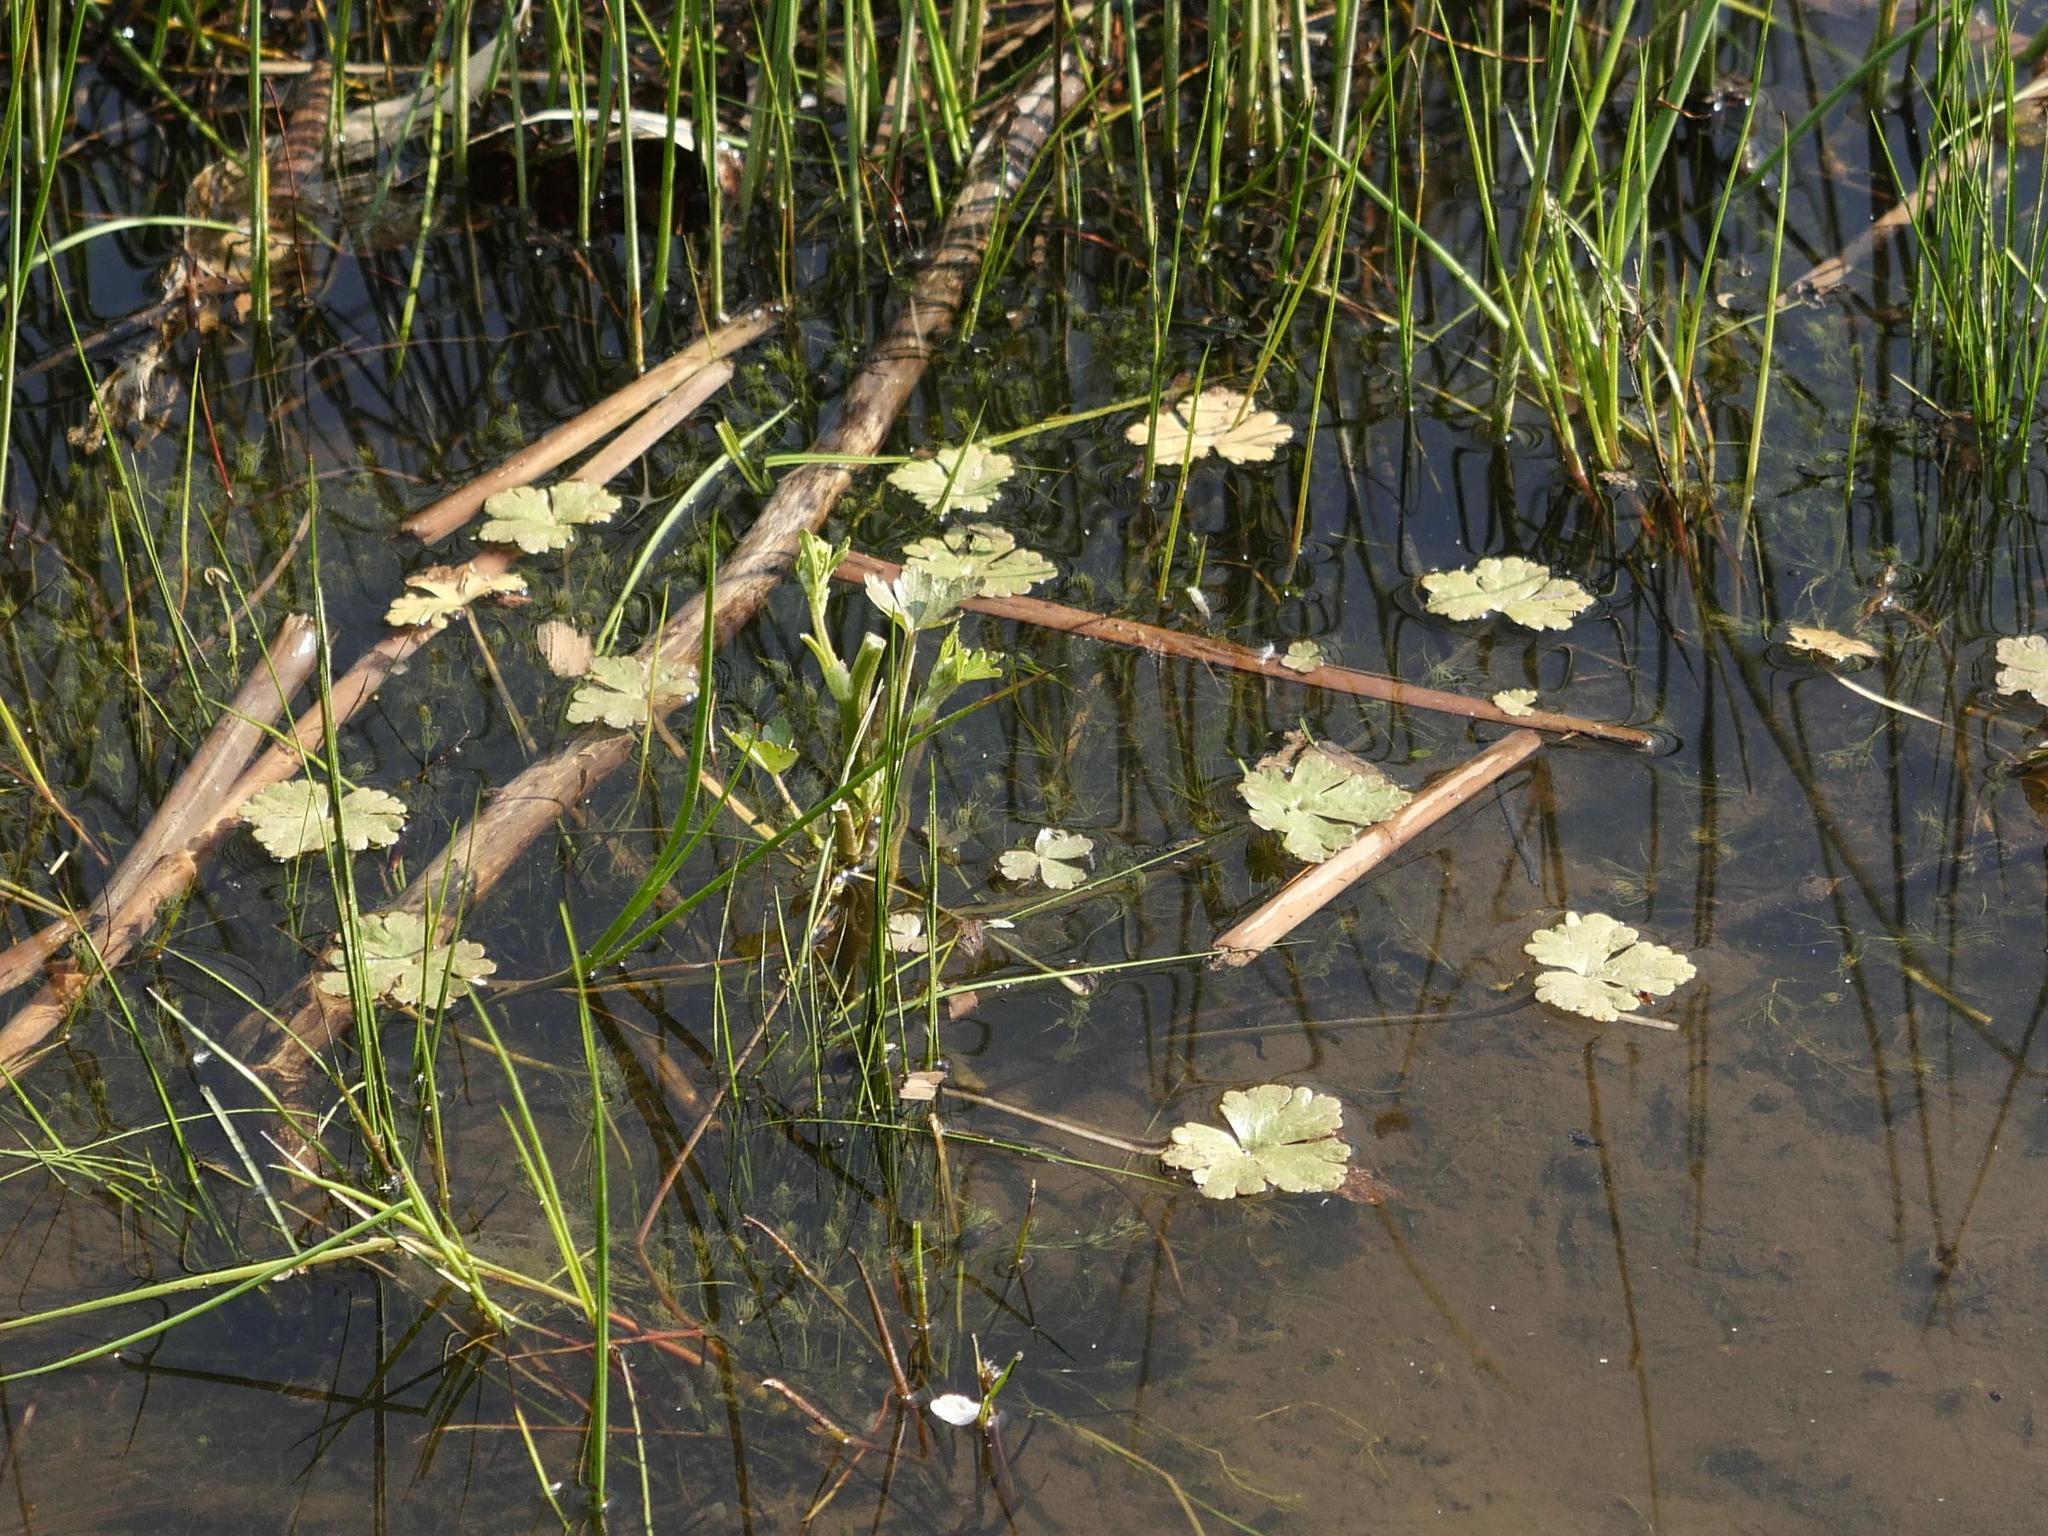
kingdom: Plantae
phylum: Tracheophyta
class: Magnoliopsida
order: Ranunculales
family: Ranunculaceae
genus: Ranunculus
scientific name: Ranunculus sceleratus
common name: Celery-leaved buttercup
